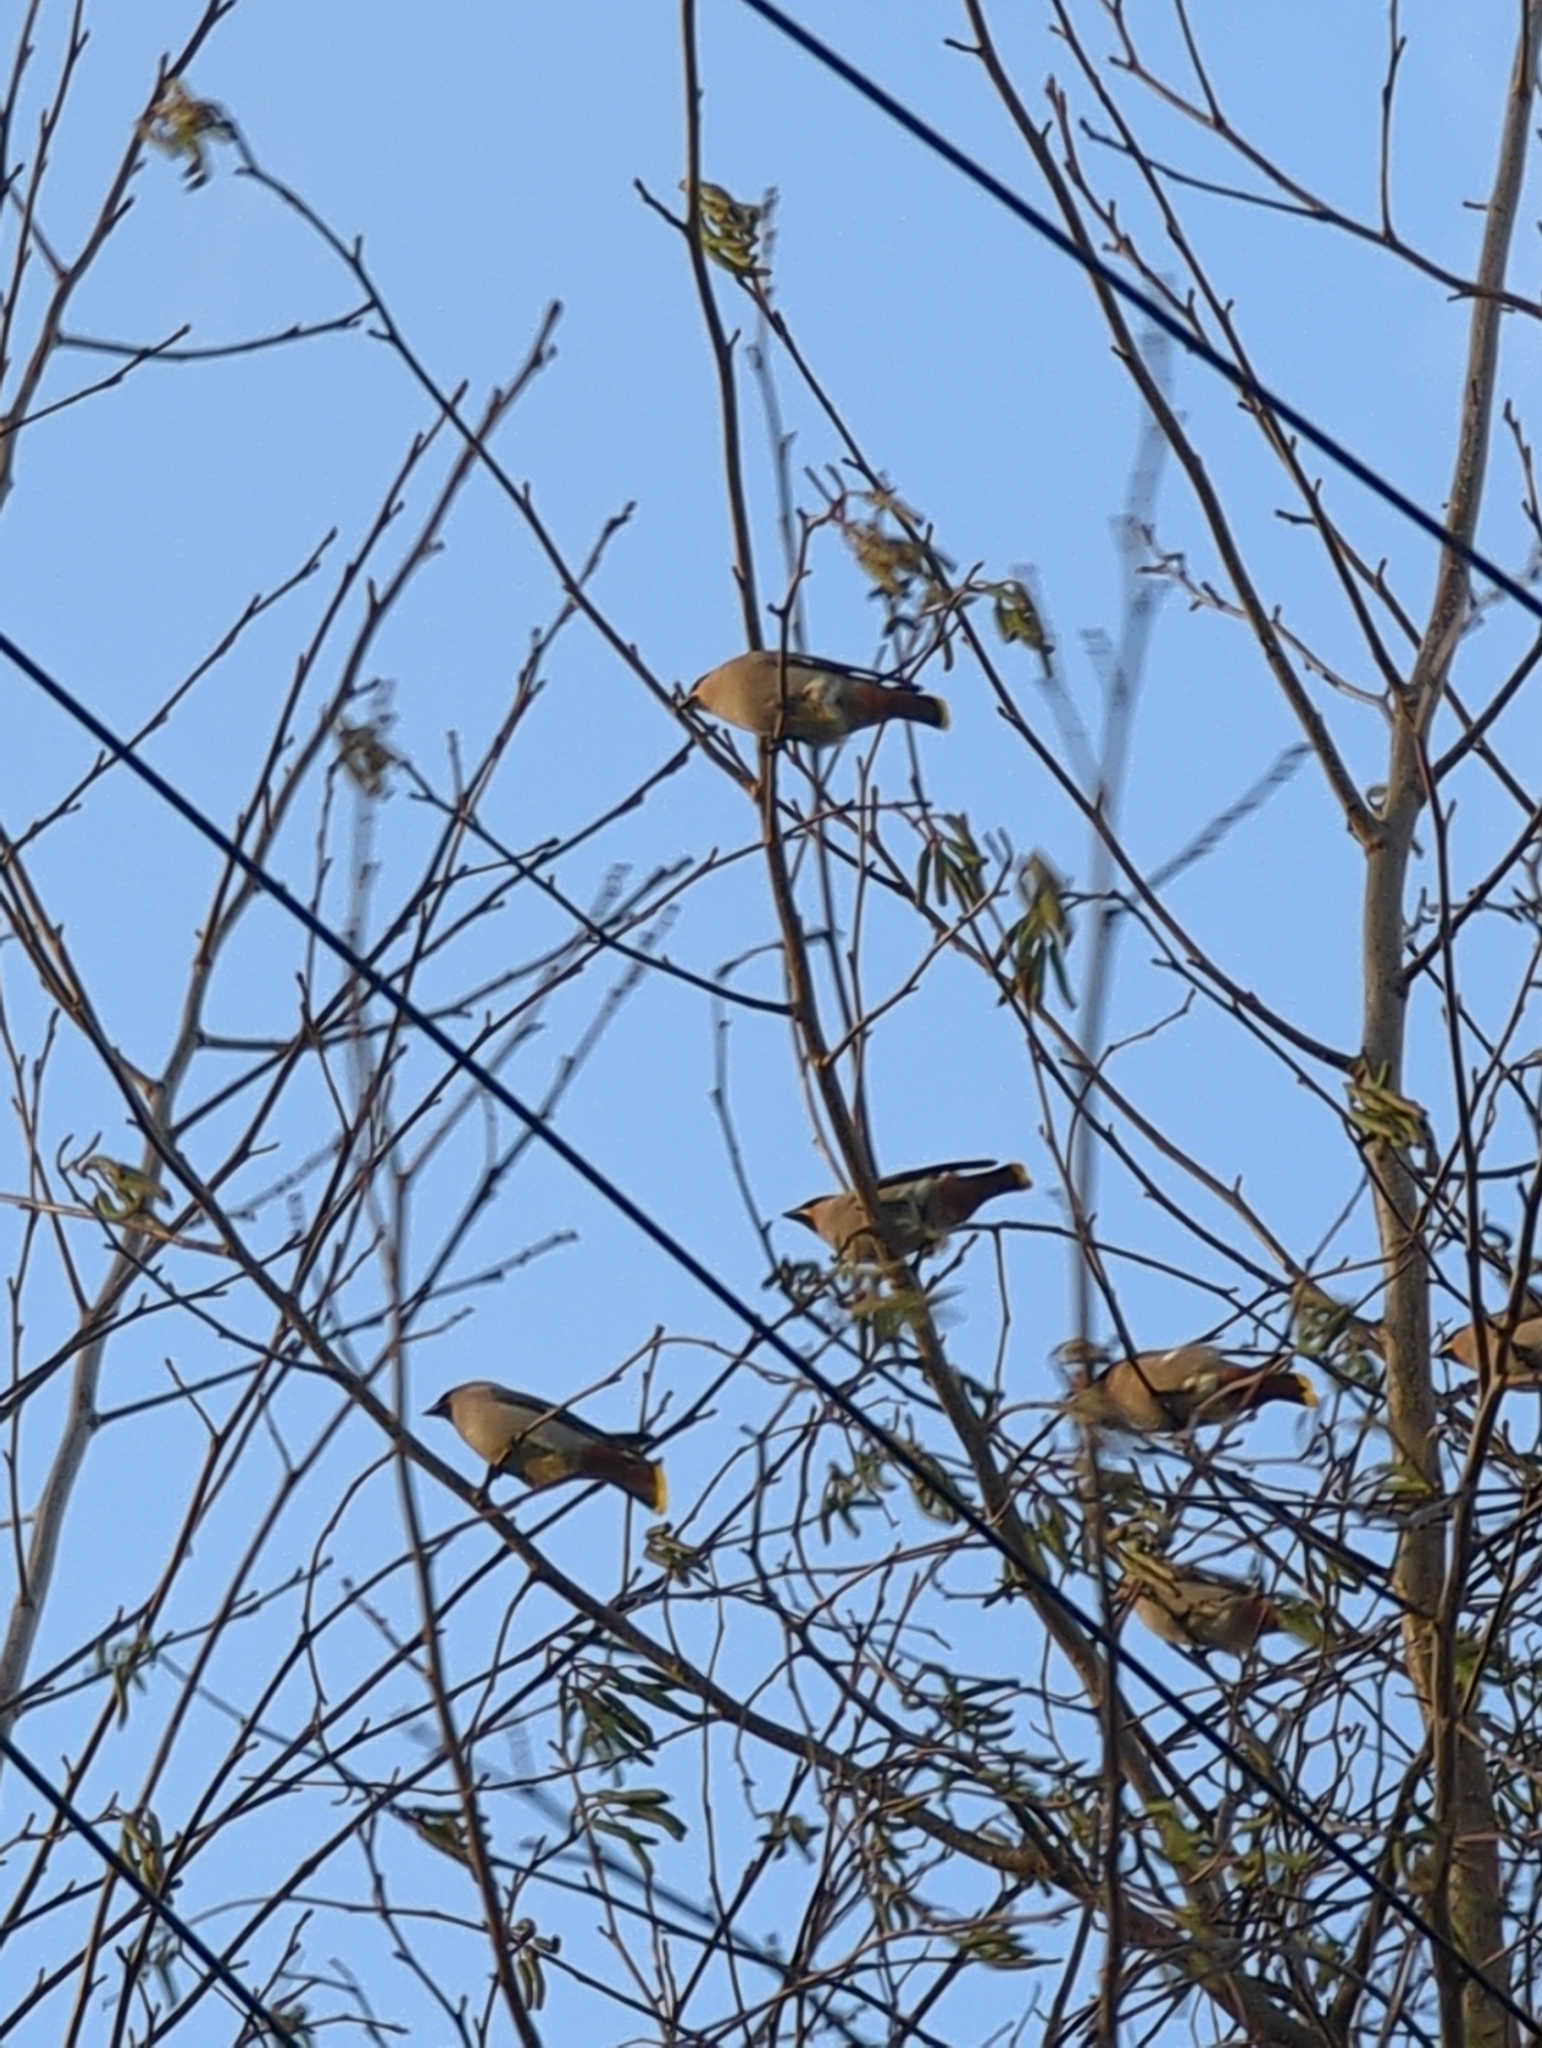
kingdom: Animalia
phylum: Chordata
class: Aves
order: Passeriformes
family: Bombycillidae
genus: Bombycilla
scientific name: Bombycilla garrulus
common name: Bohemian waxwing
